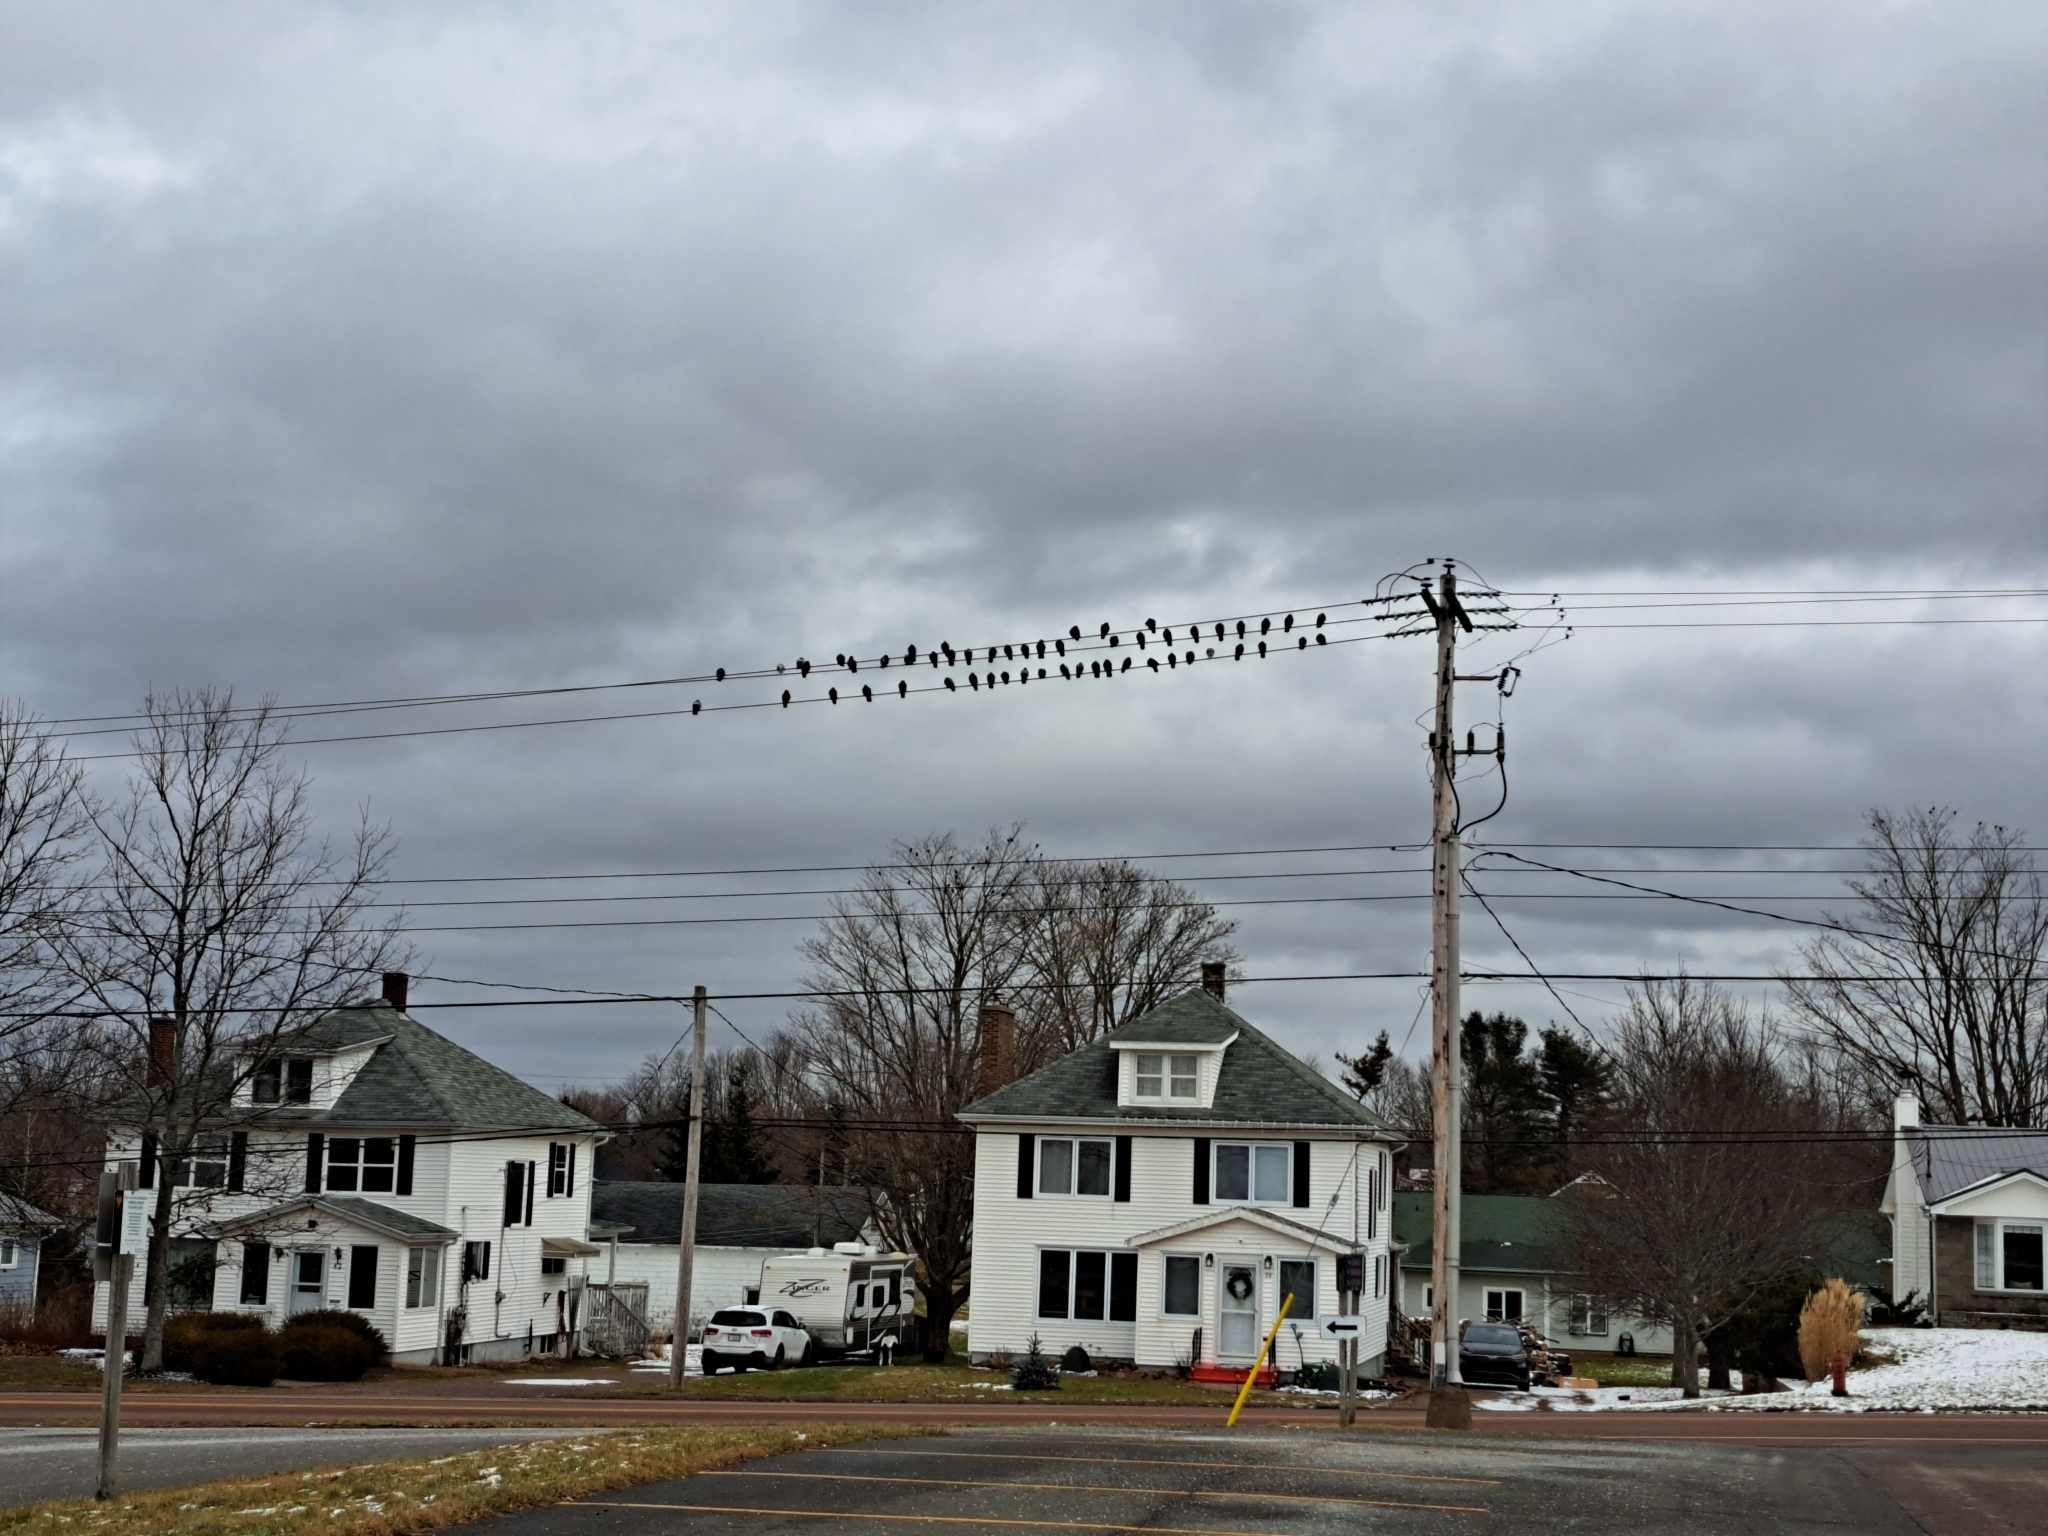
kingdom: Animalia
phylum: Chordata
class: Aves
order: Columbiformes
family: Columbidae
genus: Columba
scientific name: Columba livia
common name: Rock pigeon
